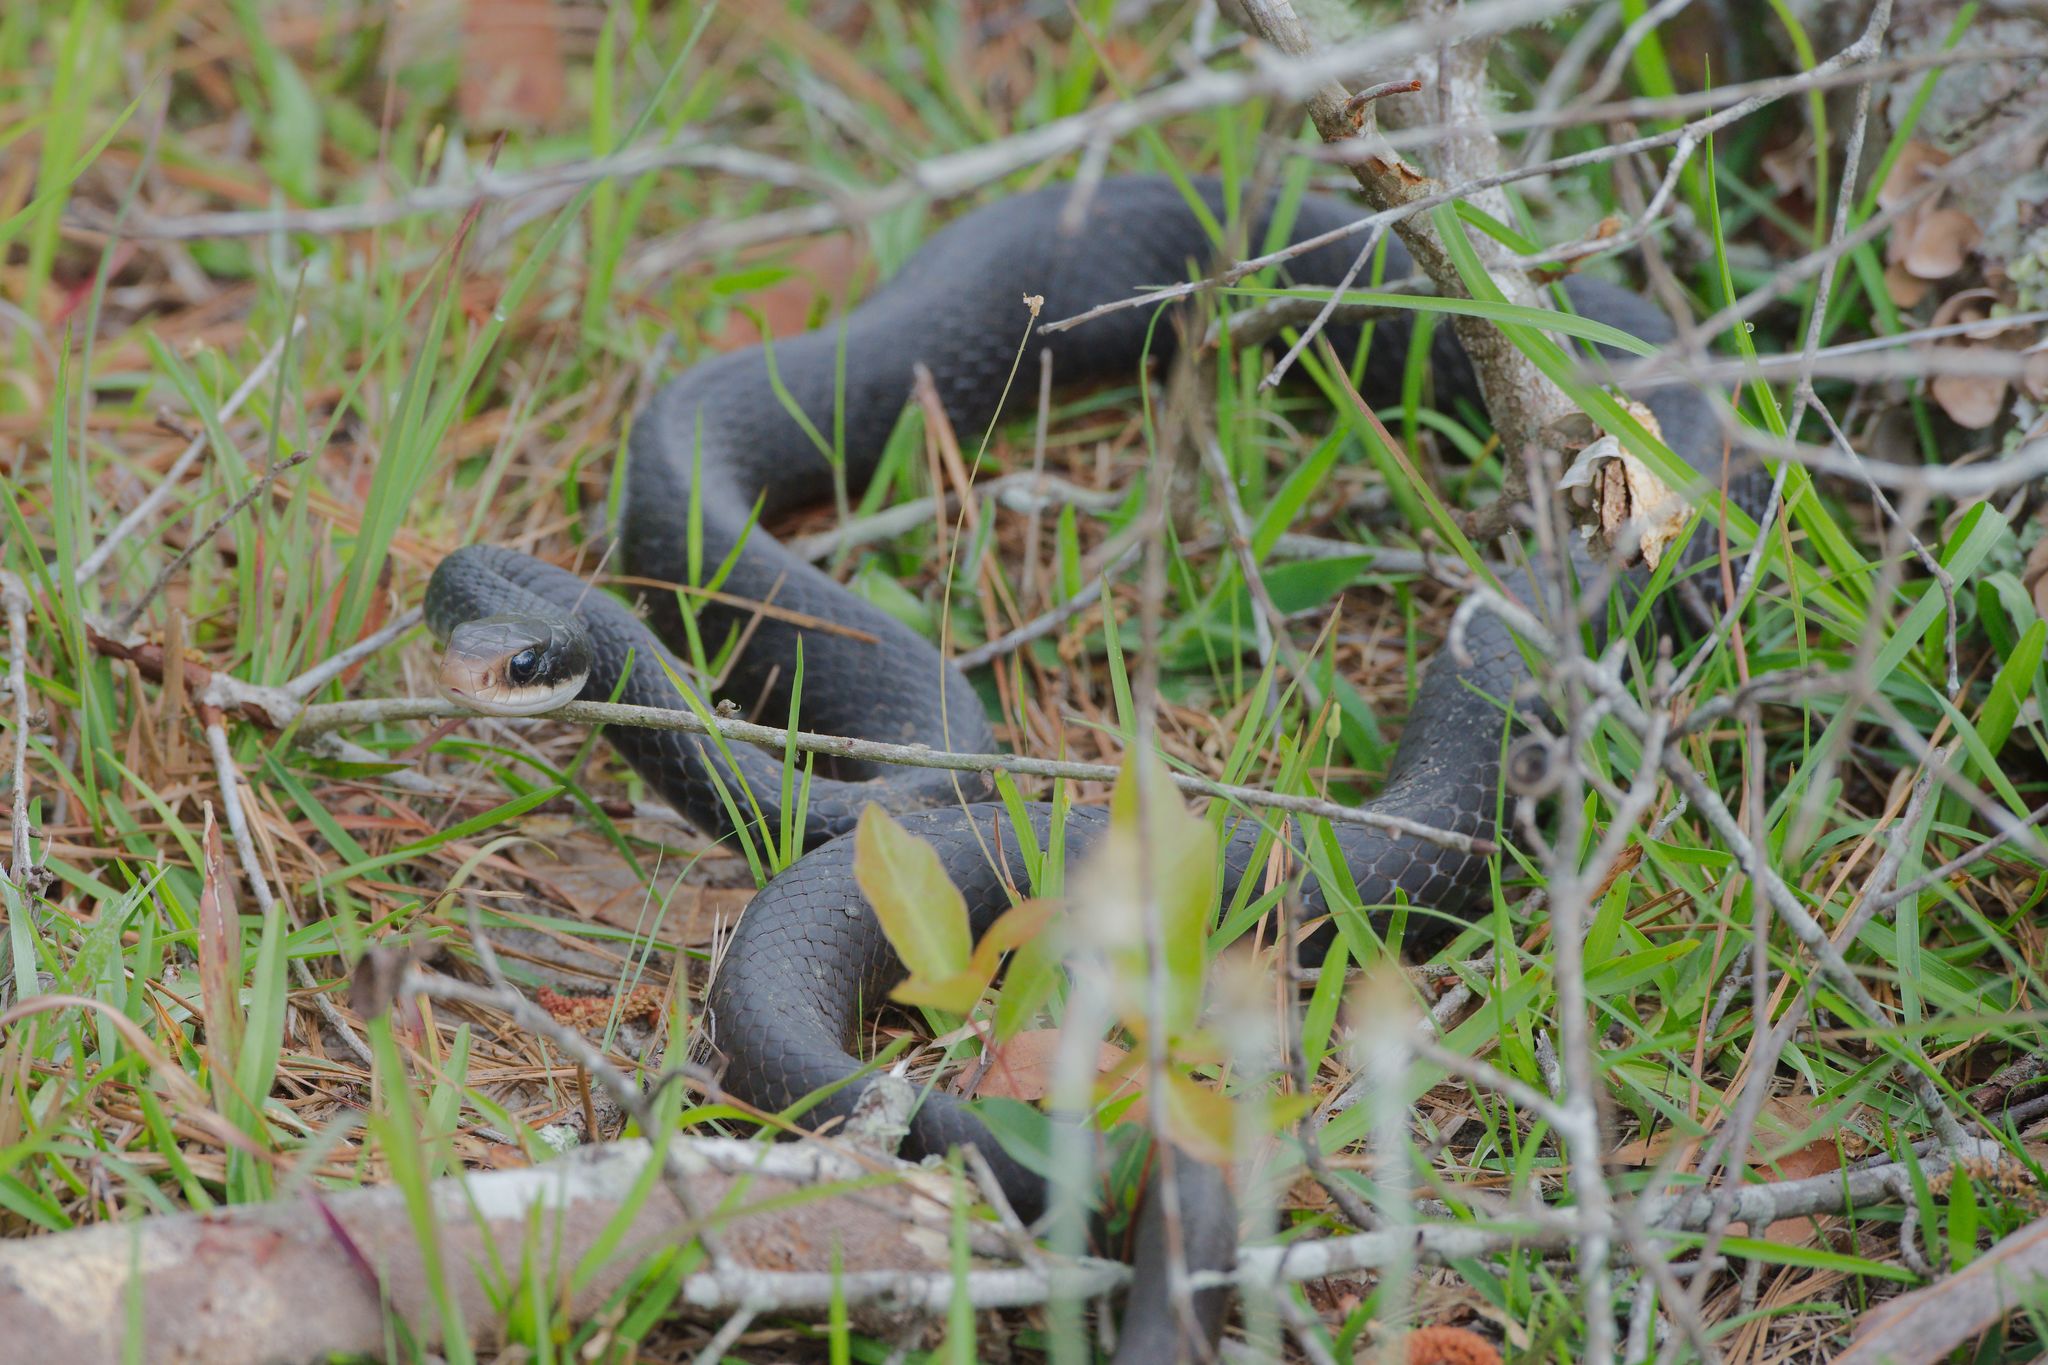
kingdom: Animalia
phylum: Chordata
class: Squamata
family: Colubridae
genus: Coluber
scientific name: Coluber constrictor
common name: Eastern racer
